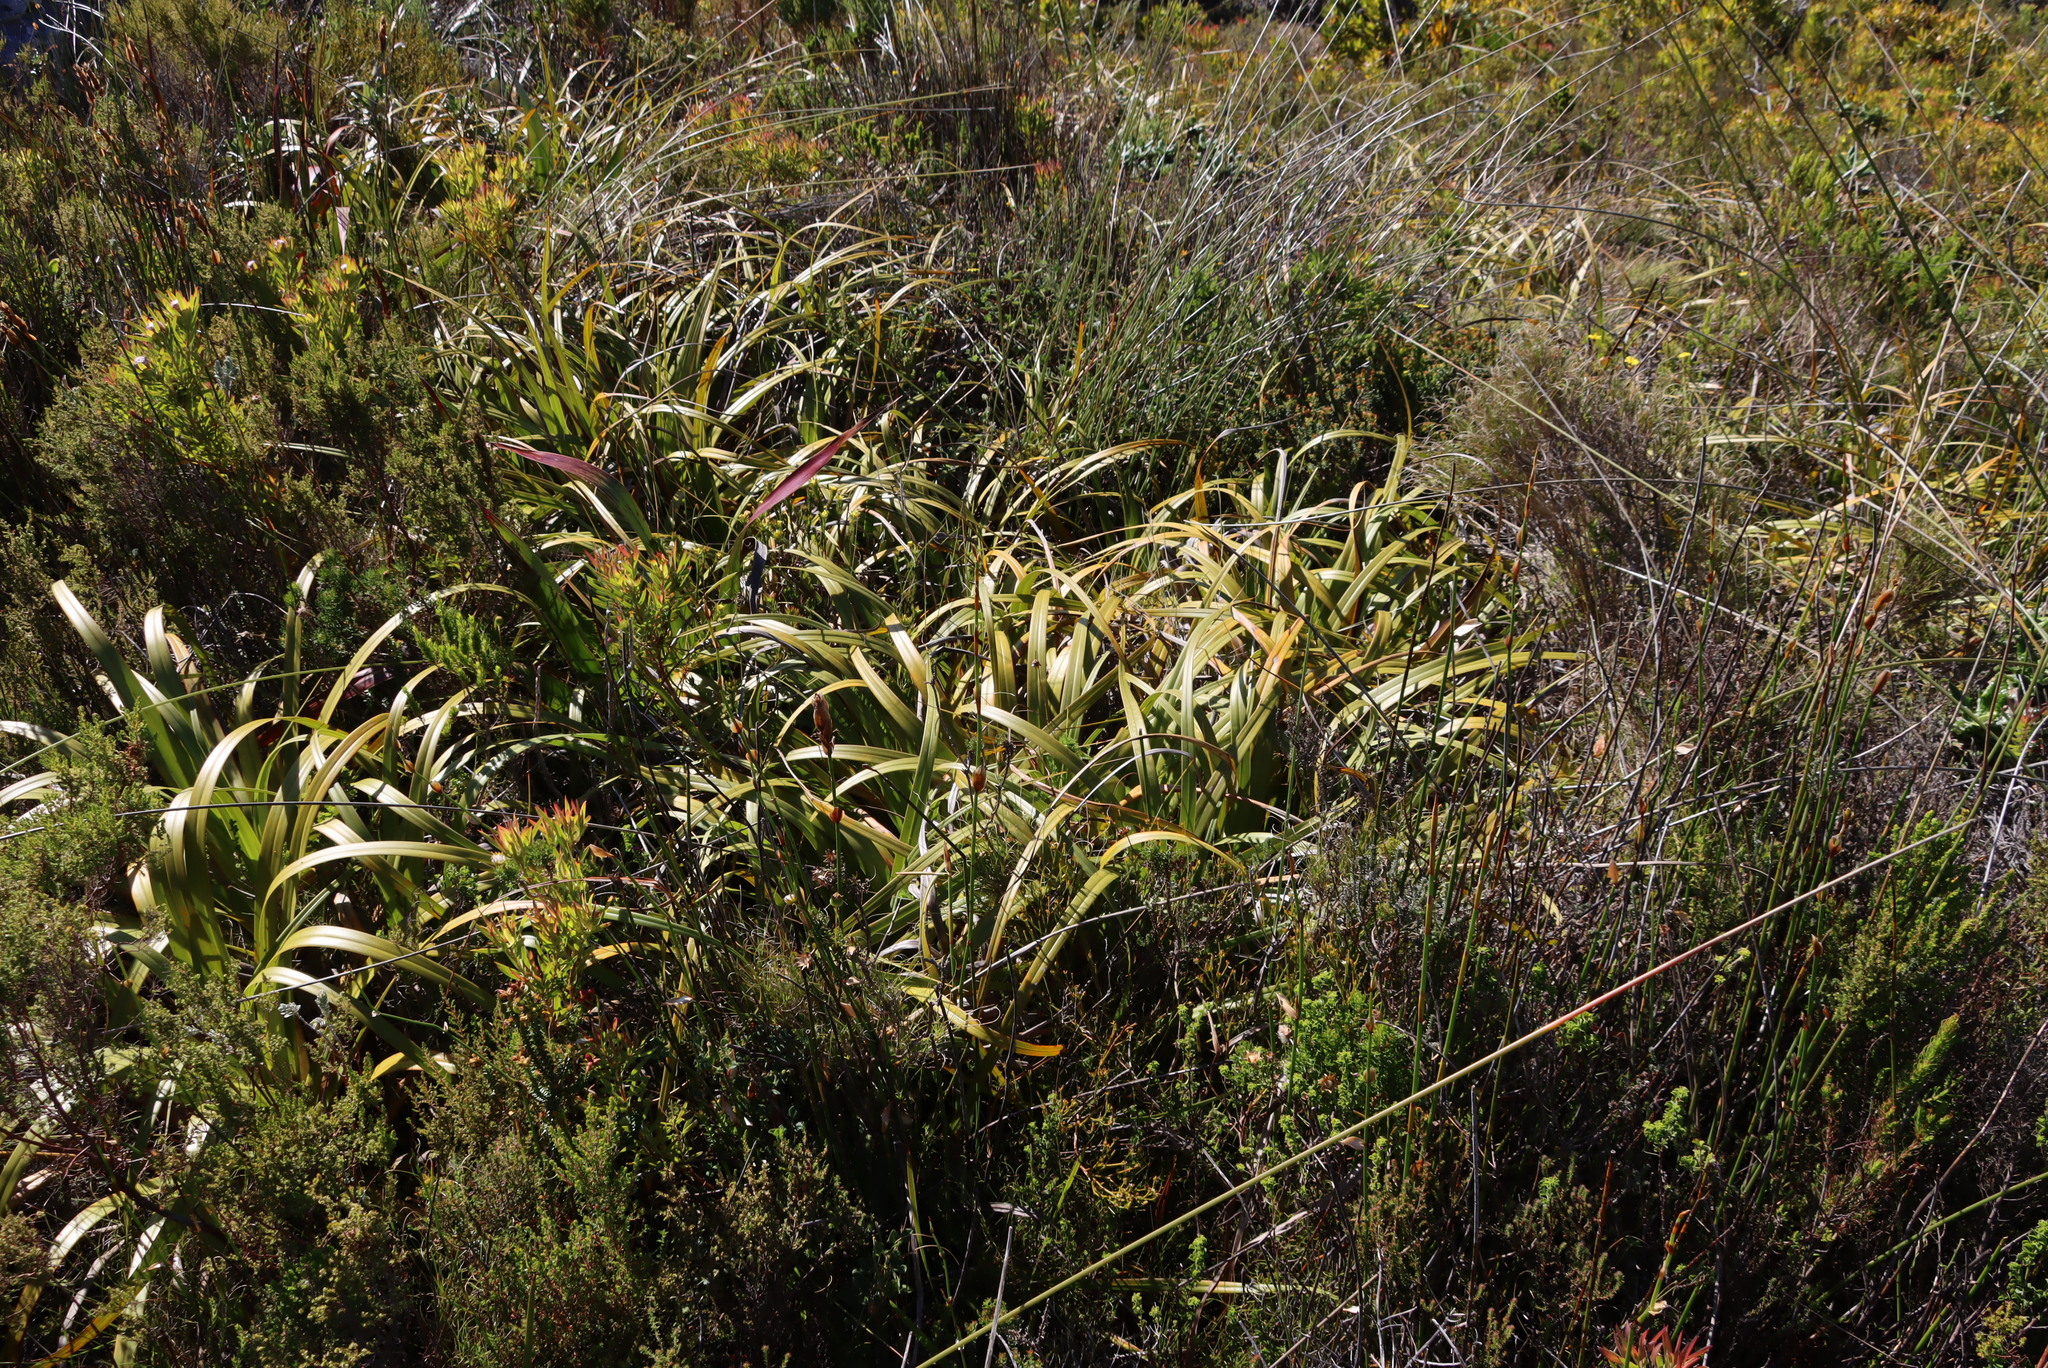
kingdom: Plantae
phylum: Tracheophyta
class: Liliopsida
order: Poales
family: Cyperaceae
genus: Tetraria
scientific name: Tetraria thermalis
